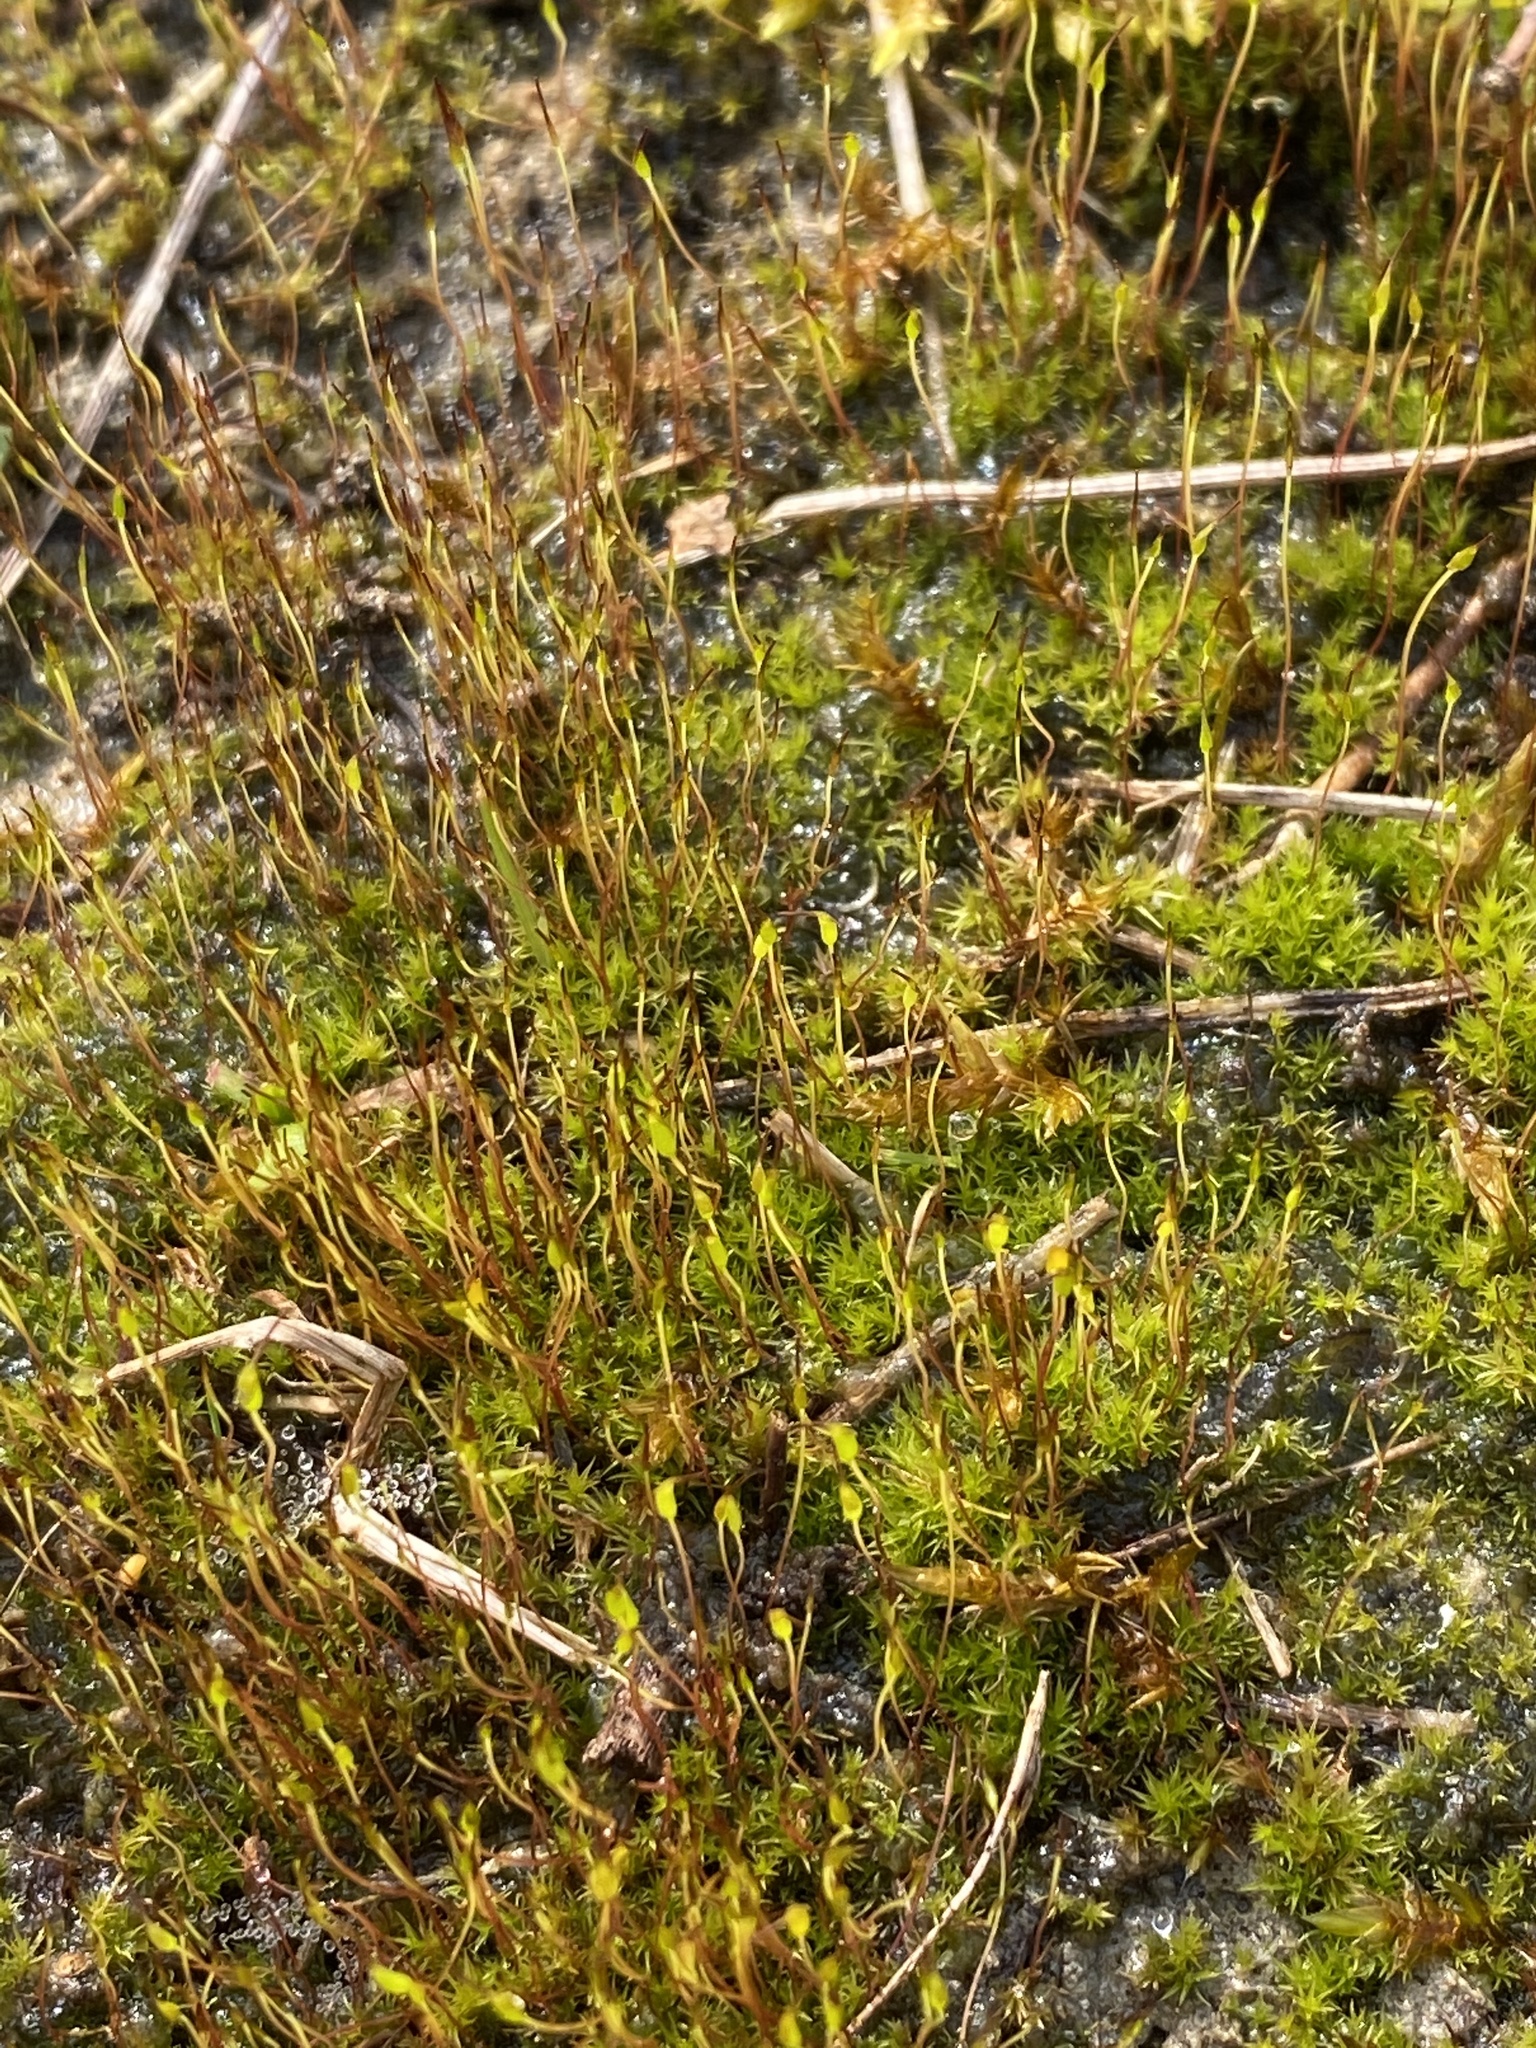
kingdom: Plantae
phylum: Bryophyta
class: Bryopsida
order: Dicranales
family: Ditrichaceae
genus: Ceratodon
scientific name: Ceratodon purpureus
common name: Redshank
